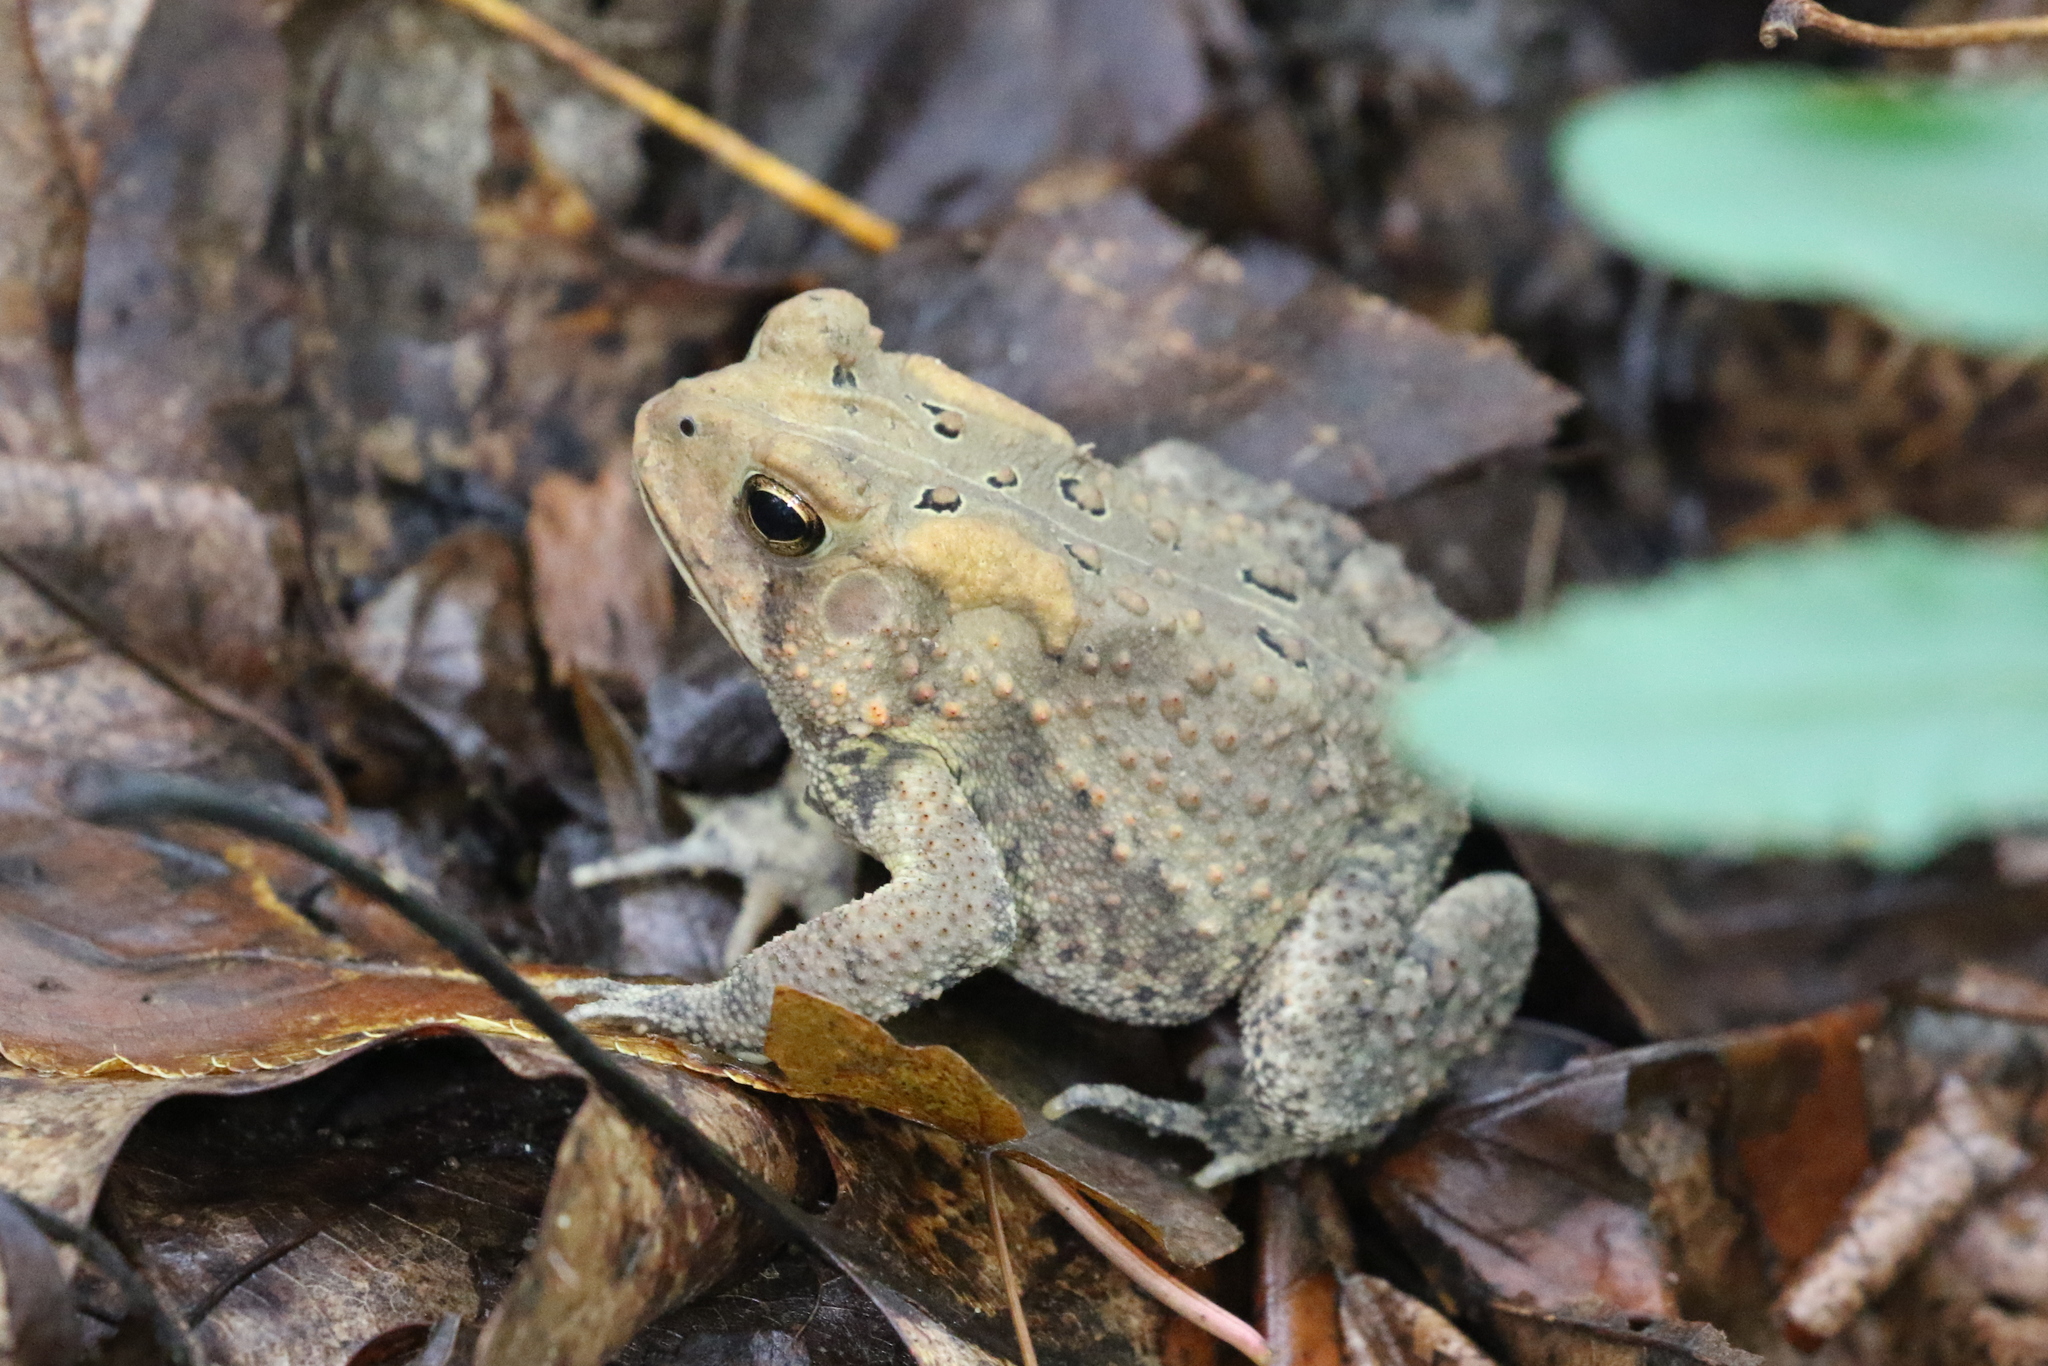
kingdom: Animalia
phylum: Chordata
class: Amphibia
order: Anura
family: Bufonidae
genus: Anaxyrus
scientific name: Anaxyrus americanus
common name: American toad
